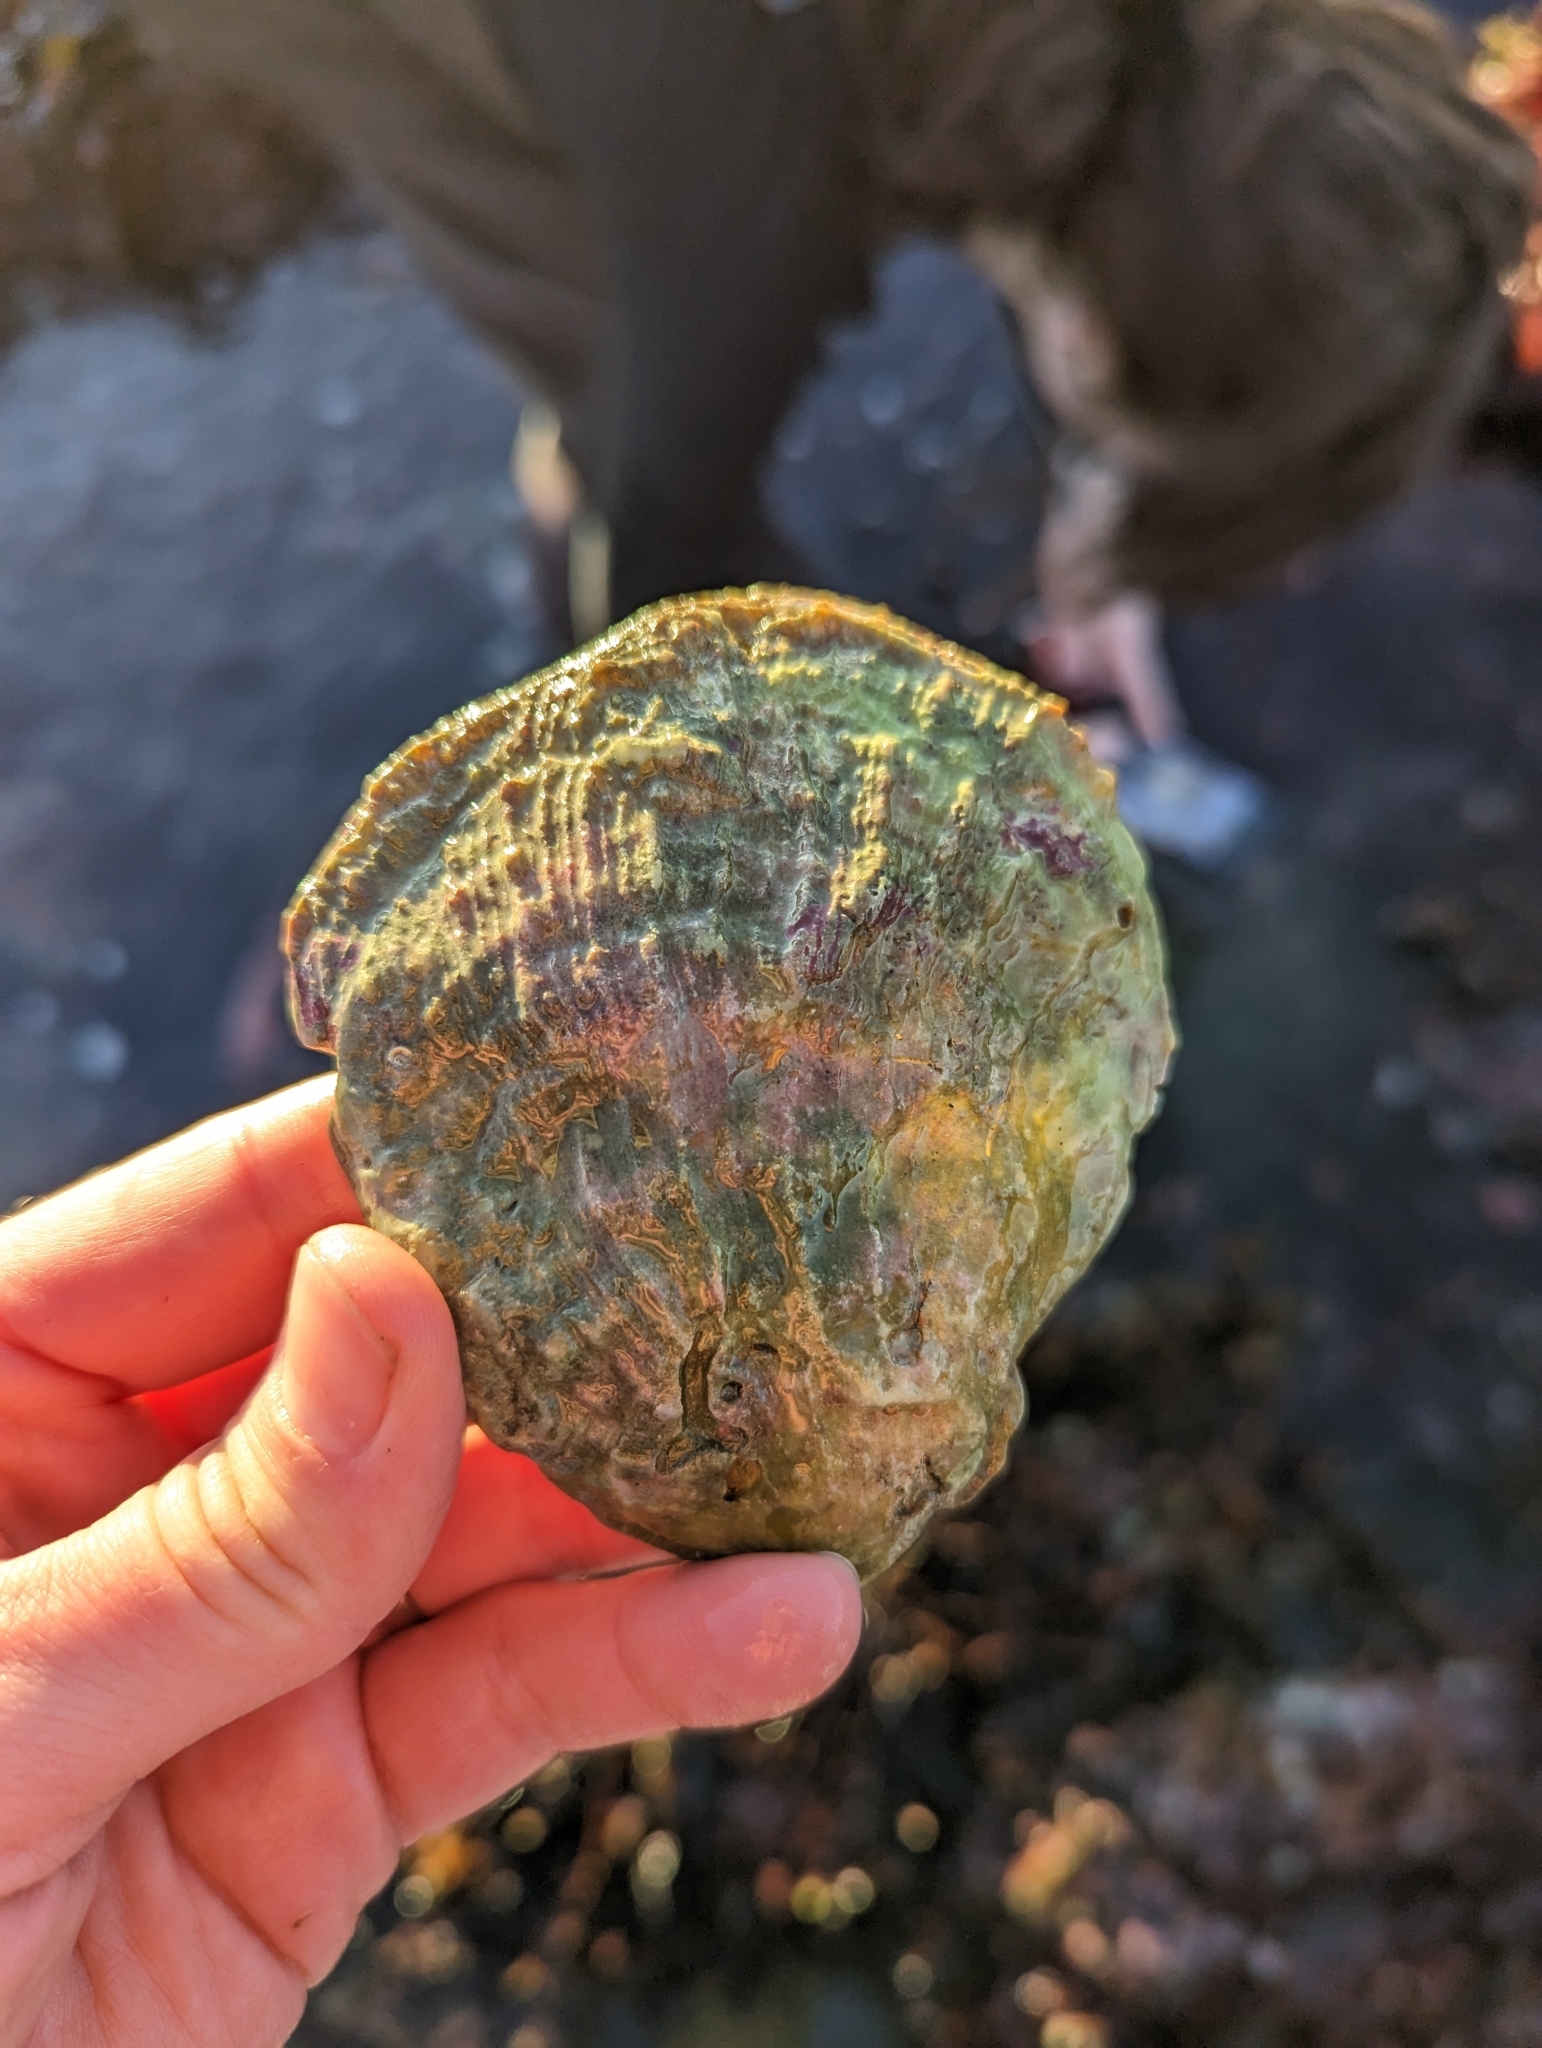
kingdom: Animalia
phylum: Mollusca
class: Bivalvia
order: Pectinida
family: Pectinidae
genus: Crassadoma
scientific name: Crassadoma gigantea
